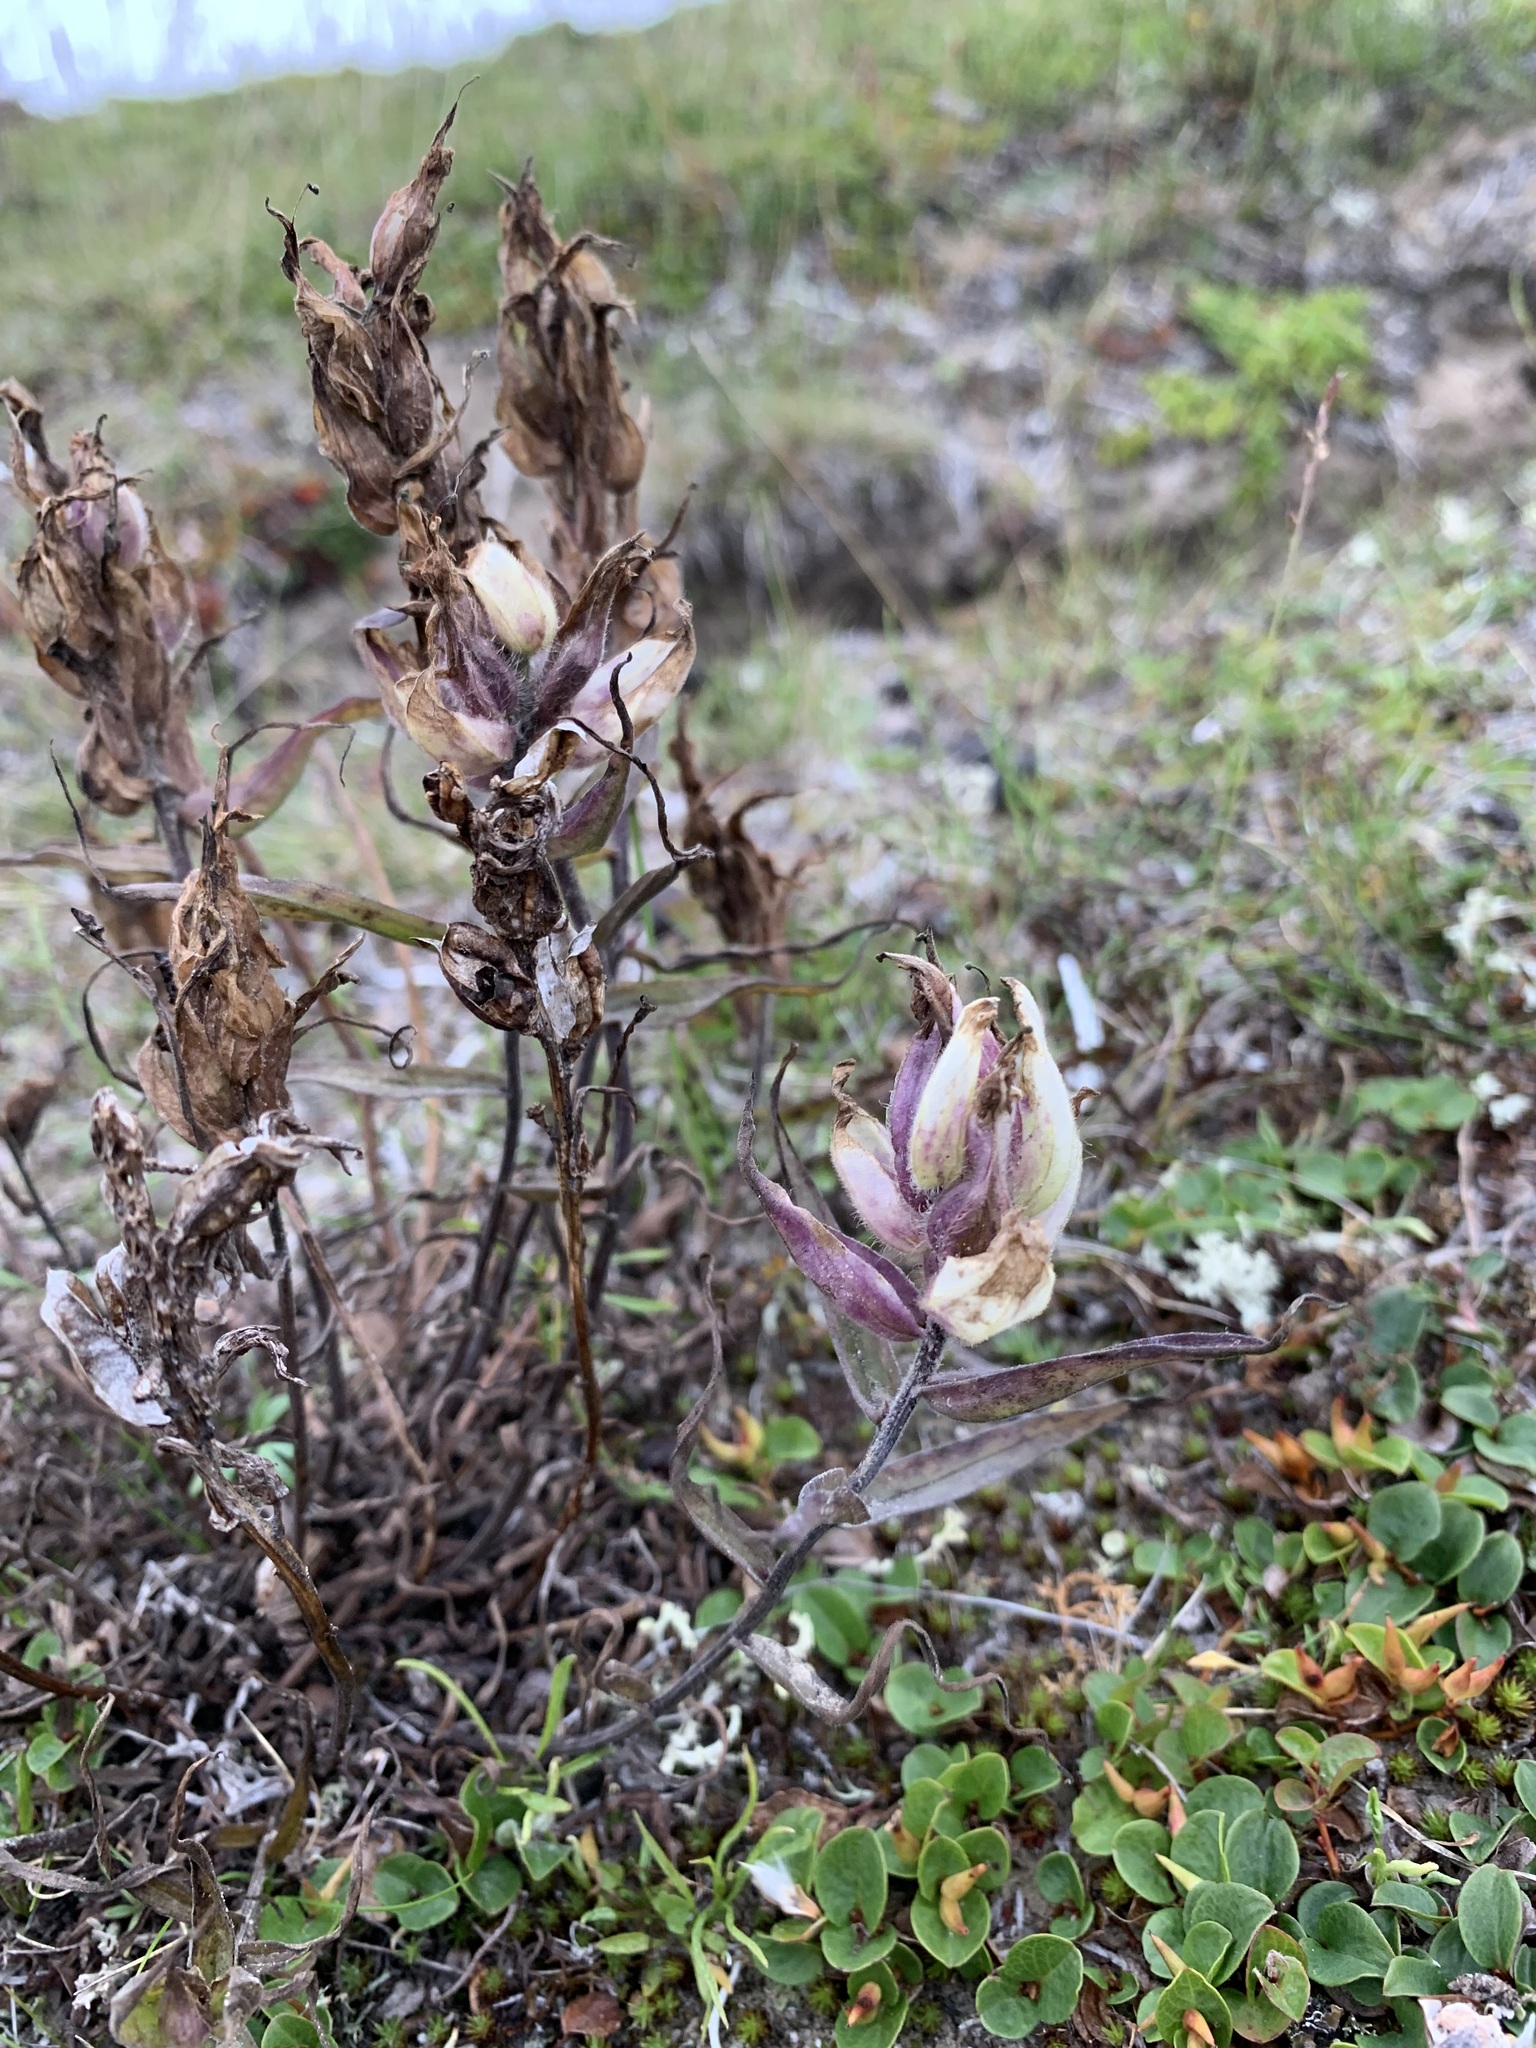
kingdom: Plantae
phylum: Tracheophyta
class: Magnoliopsida
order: Lamiales
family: Orobanchaceae
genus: Castilleja
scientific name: Castilleja arctica
